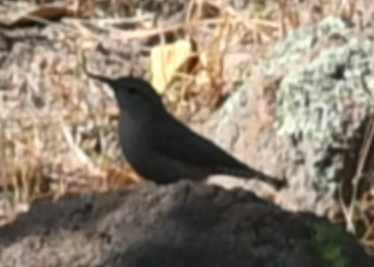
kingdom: Animalia
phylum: Chordata
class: Aves
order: Passeriformes
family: Troglodytidae
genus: Salpinctes
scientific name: Salpinctes obsoletus
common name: Rock wren
